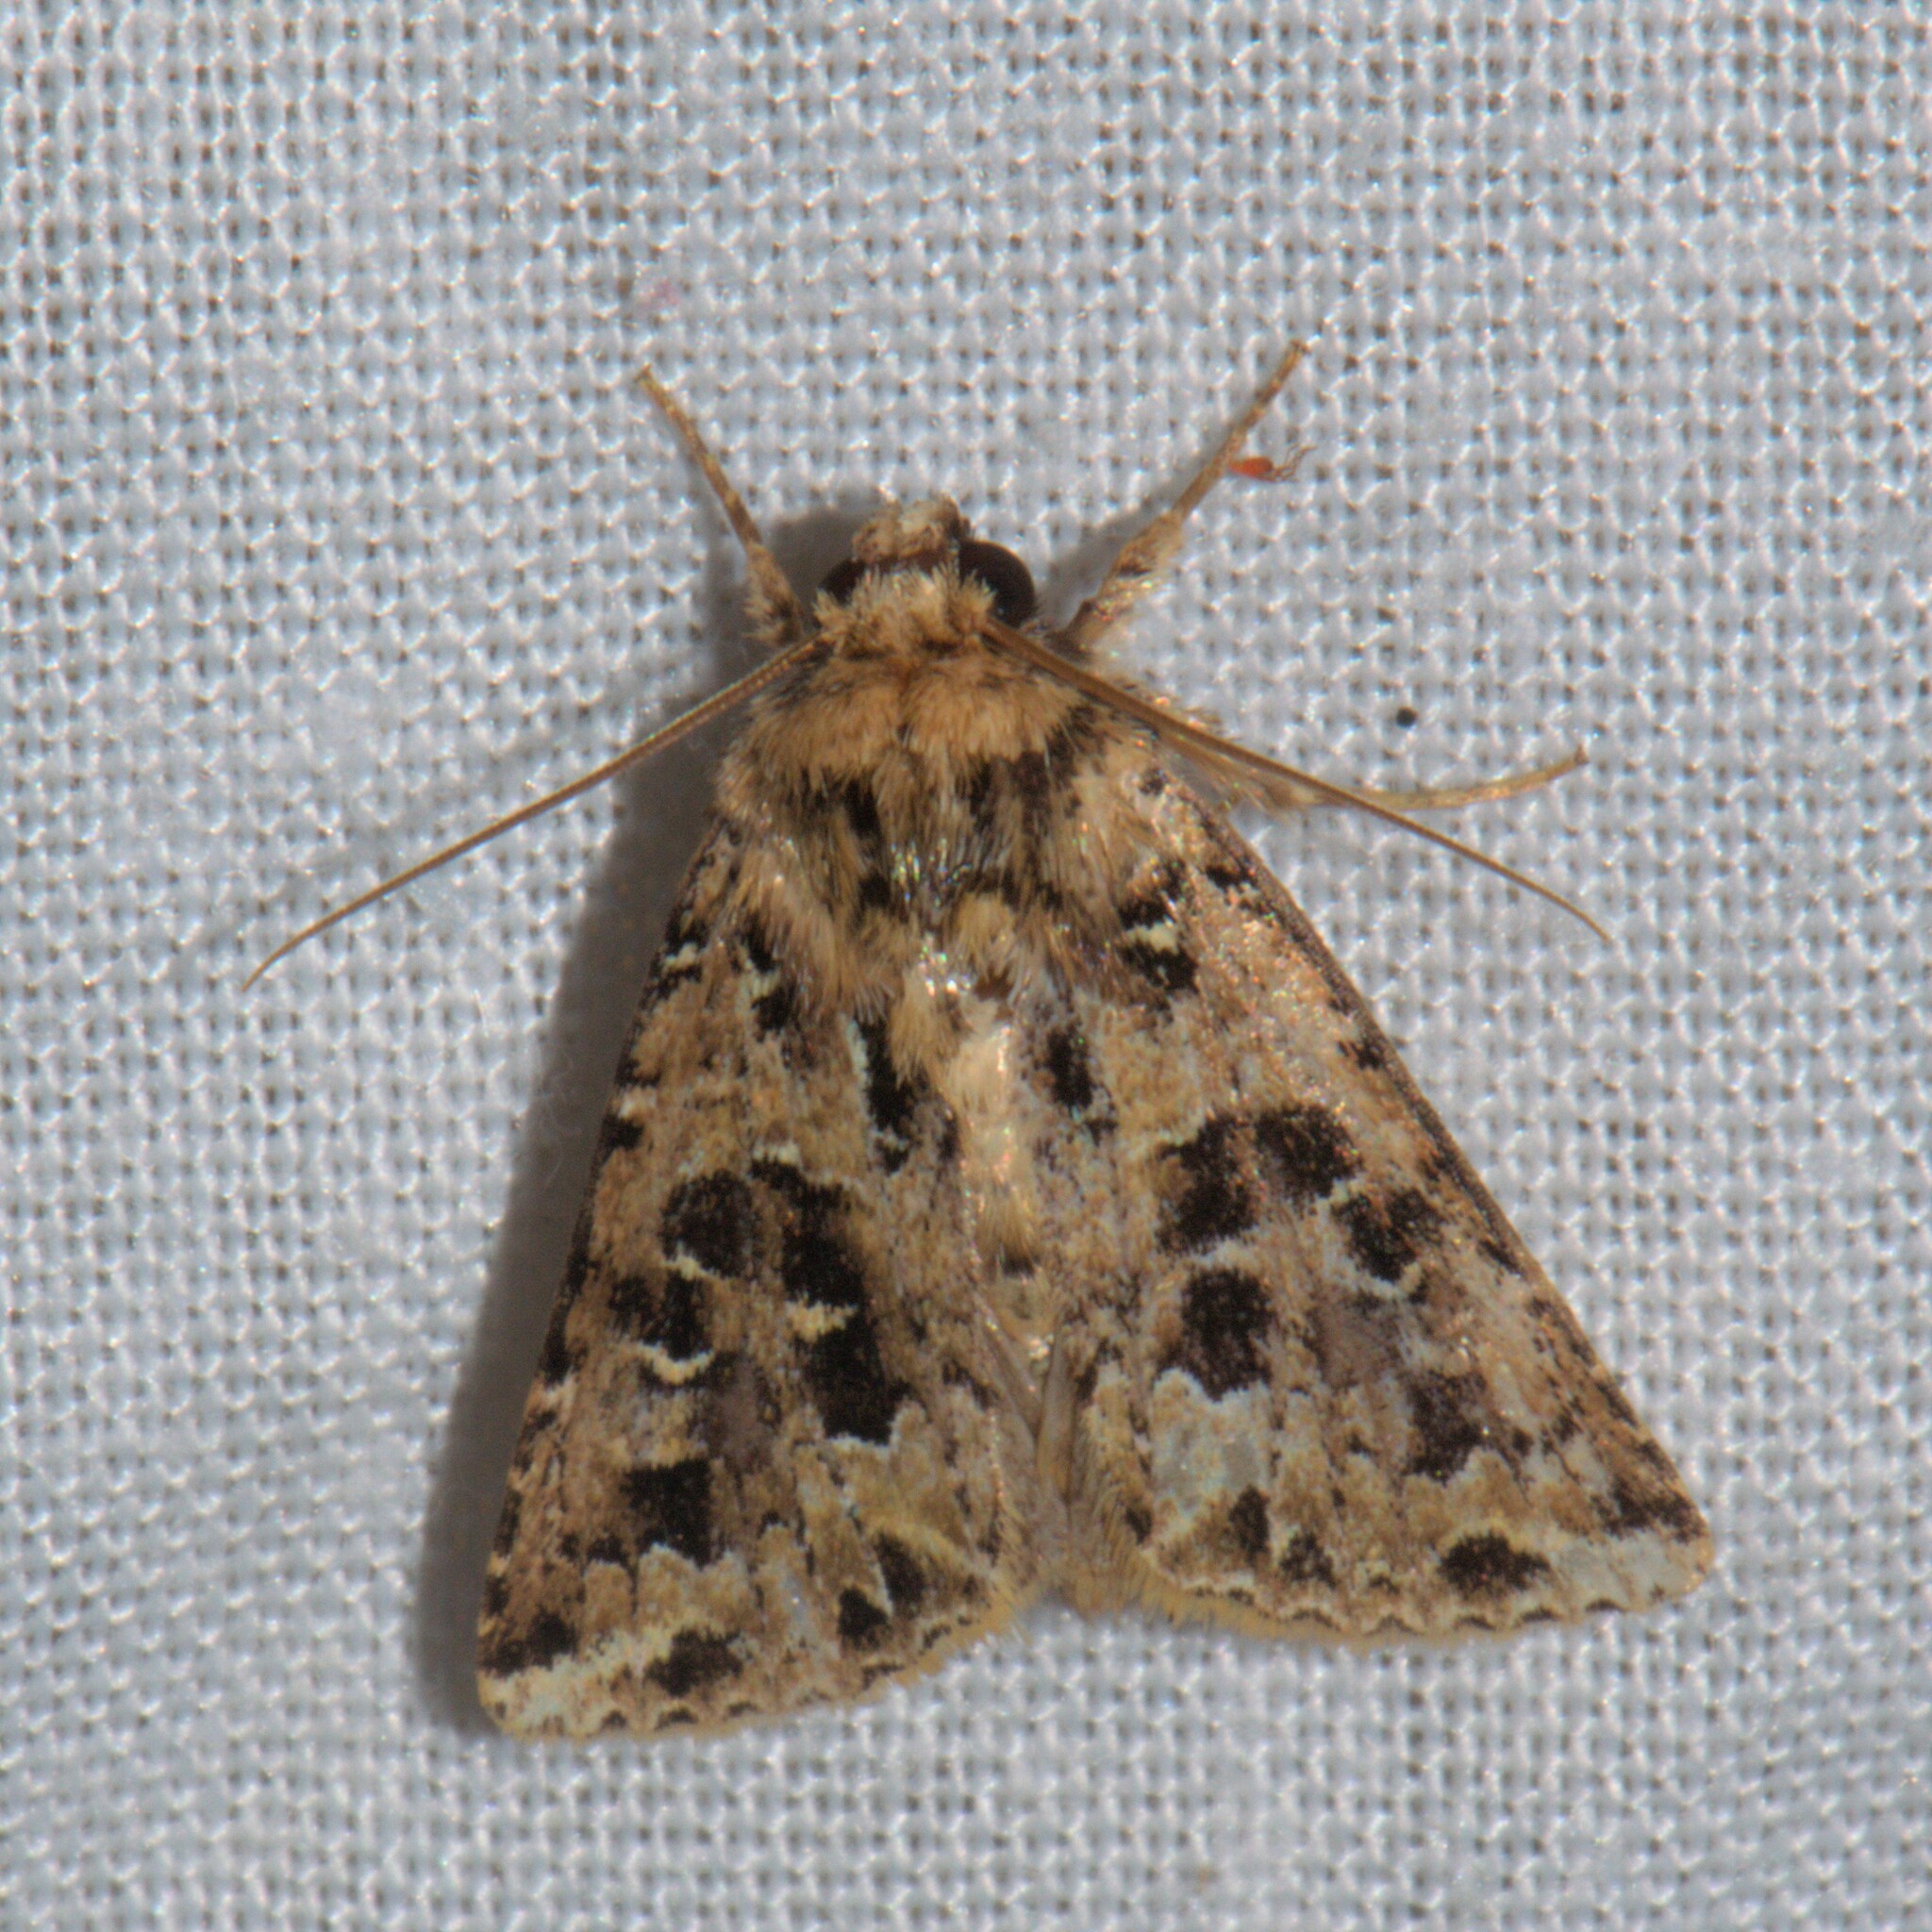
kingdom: Animalia
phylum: Arthropoda
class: Insecta
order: Lepidoptera
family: Noctuidae
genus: Xenotrachea
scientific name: Xenotrachea chrysochlora
